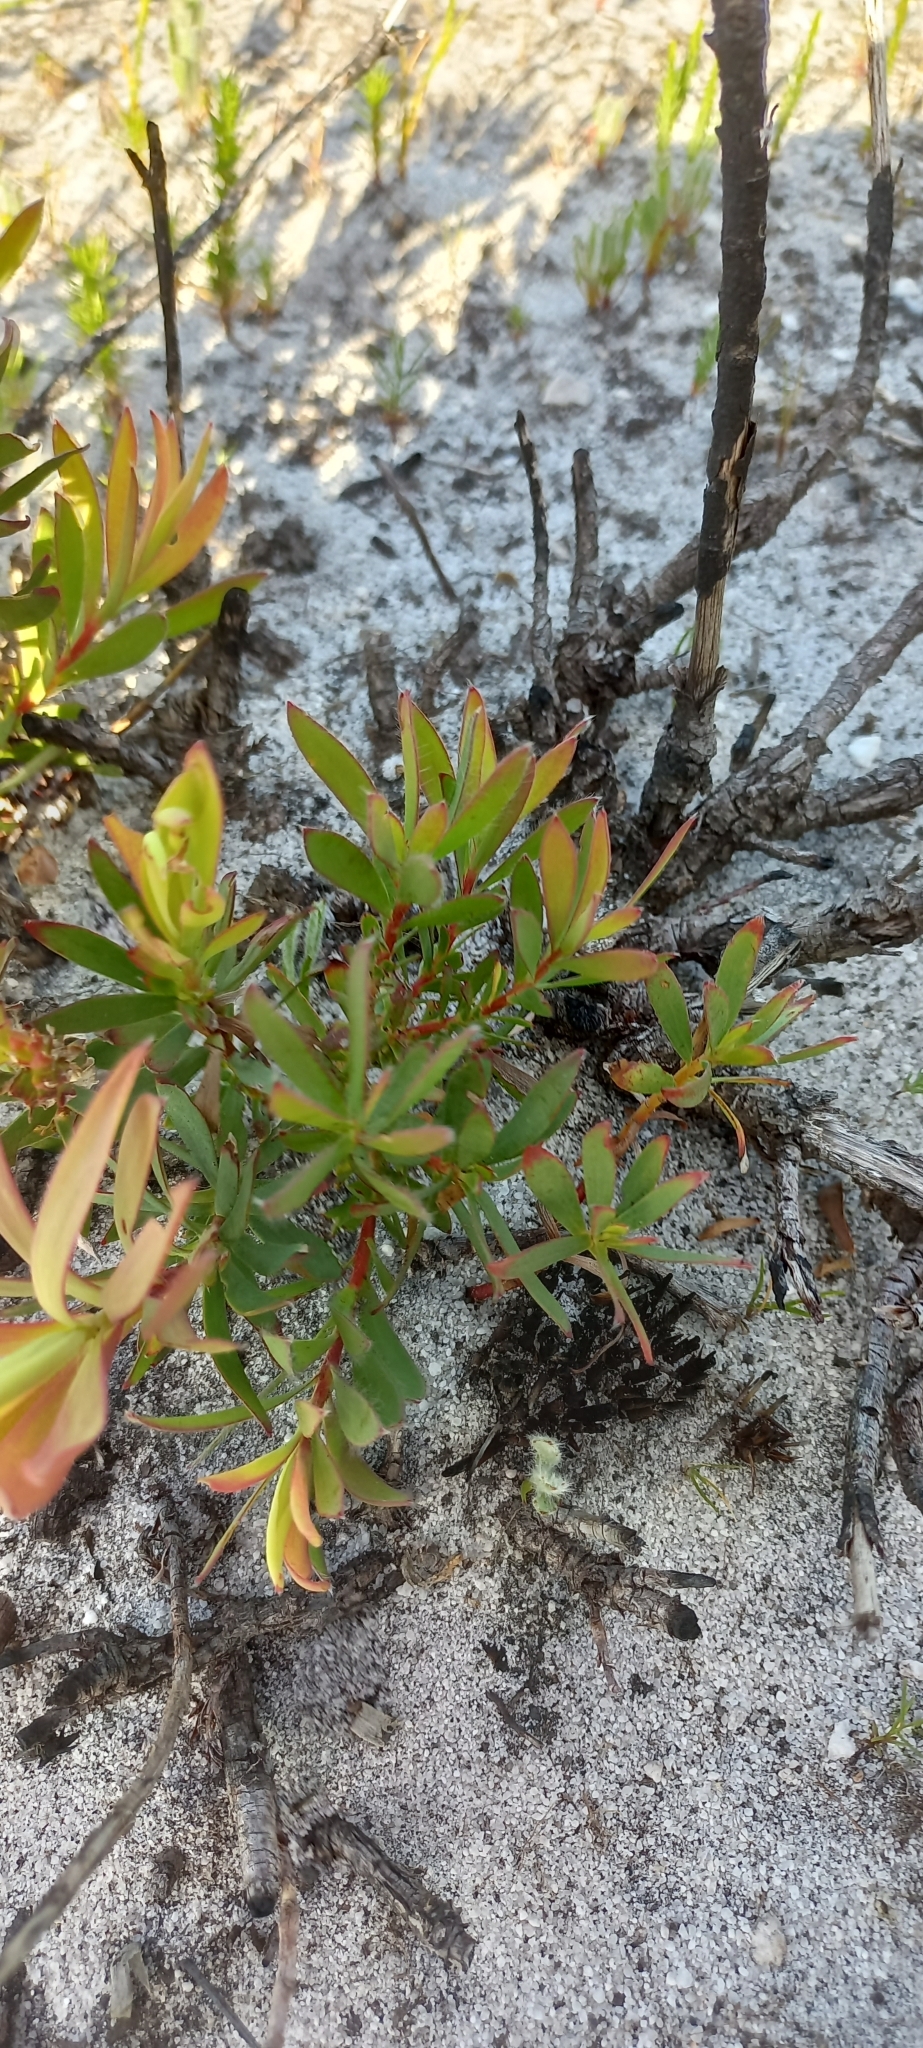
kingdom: Plantae
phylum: Tracheophyta
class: Magnoliopsida
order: Proteales
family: Proteaceae
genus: Leucadendron
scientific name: Leucadendron salignum
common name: Common sunshine conebush
